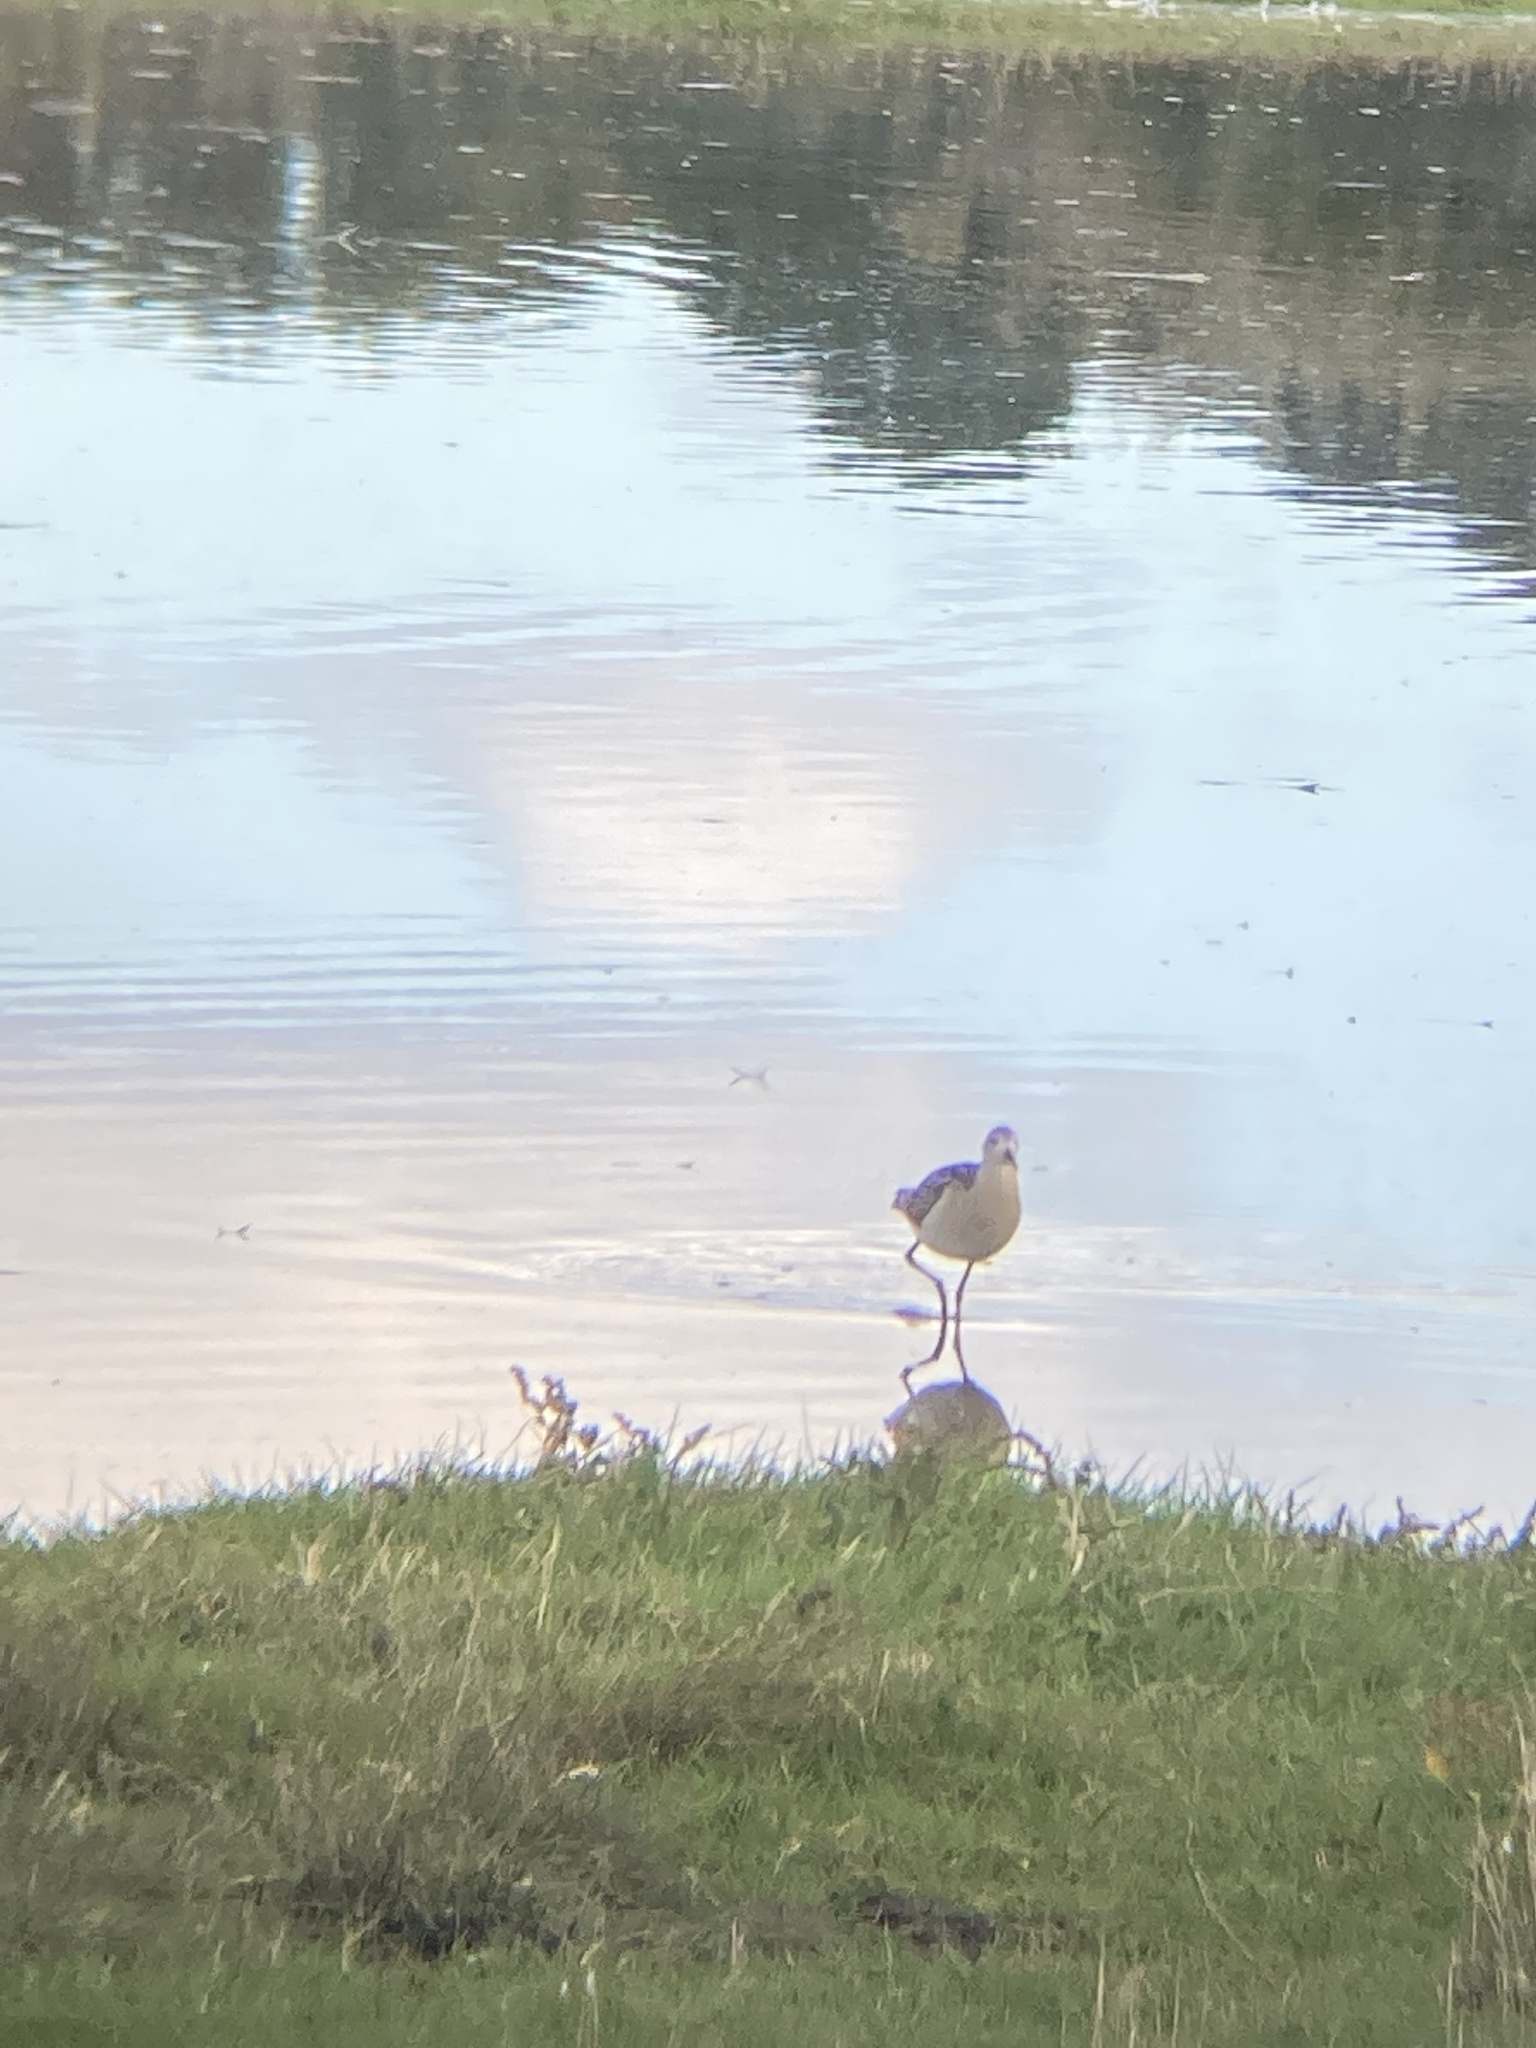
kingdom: Animalia
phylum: Chordata
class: Aves
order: Charadriiformes
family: Scolopacidae
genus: Calidris
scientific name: Calidris pugnax
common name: Ruff
